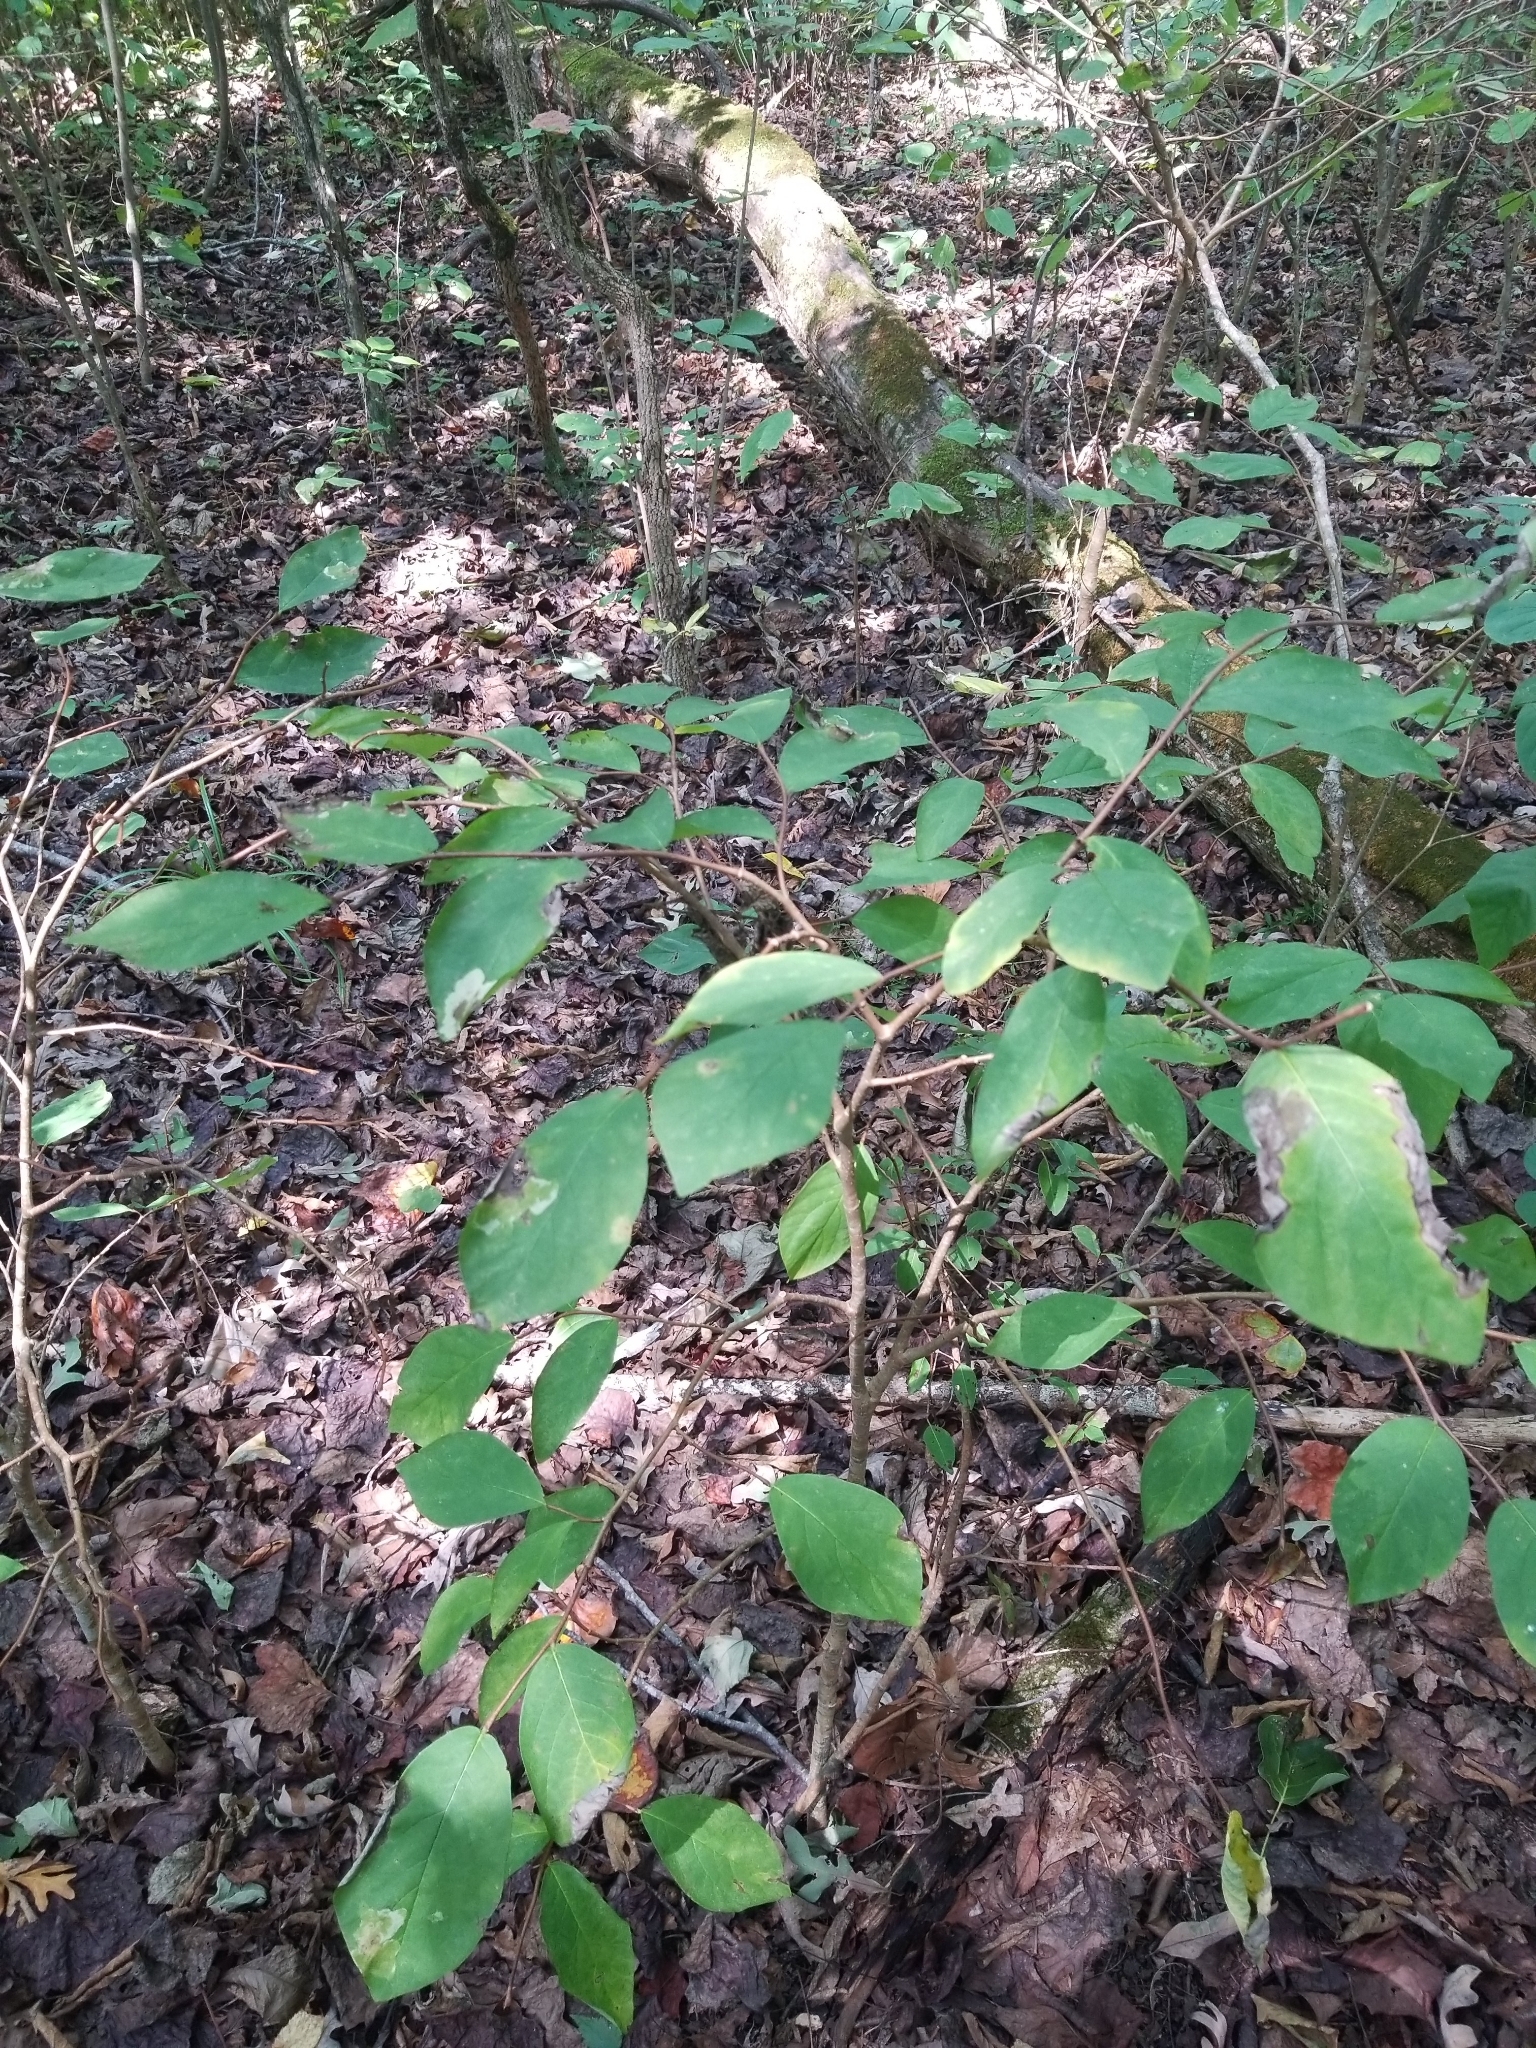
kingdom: Plantae
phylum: Tracheophyta
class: Magnoliopsida
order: Malvales
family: Thymelaeaceae
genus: Dirca
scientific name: Dirca palustris
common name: Leatherwood
